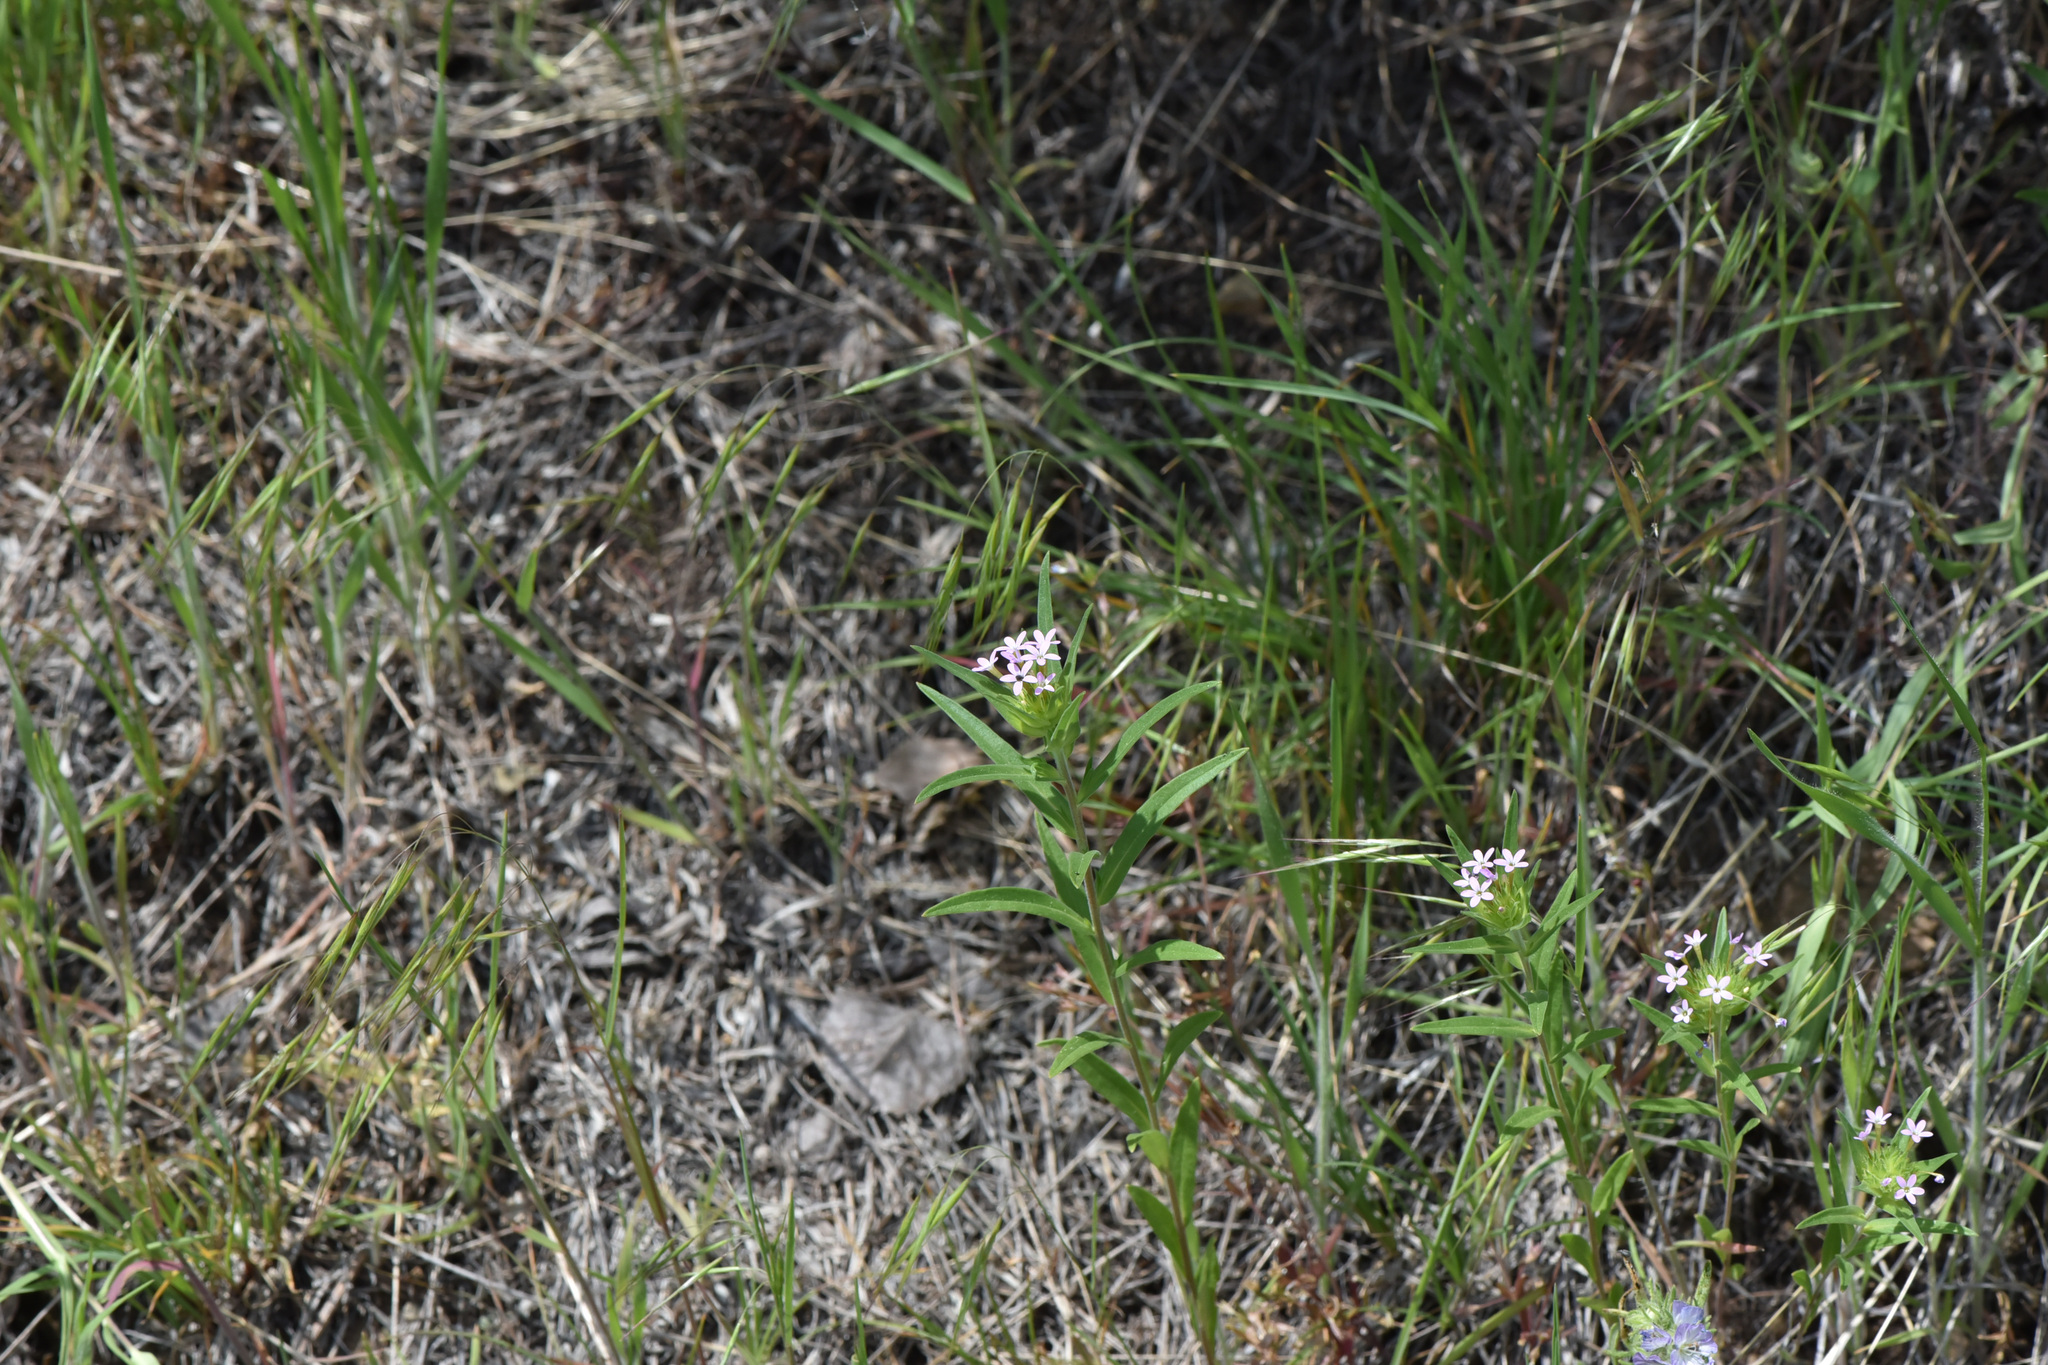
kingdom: Plantae
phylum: Tracheophyta
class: Magnoliopsida
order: Ericales
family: Polemoniaceae
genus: Collomia
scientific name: Collomia linearis
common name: Tiny trumpet
